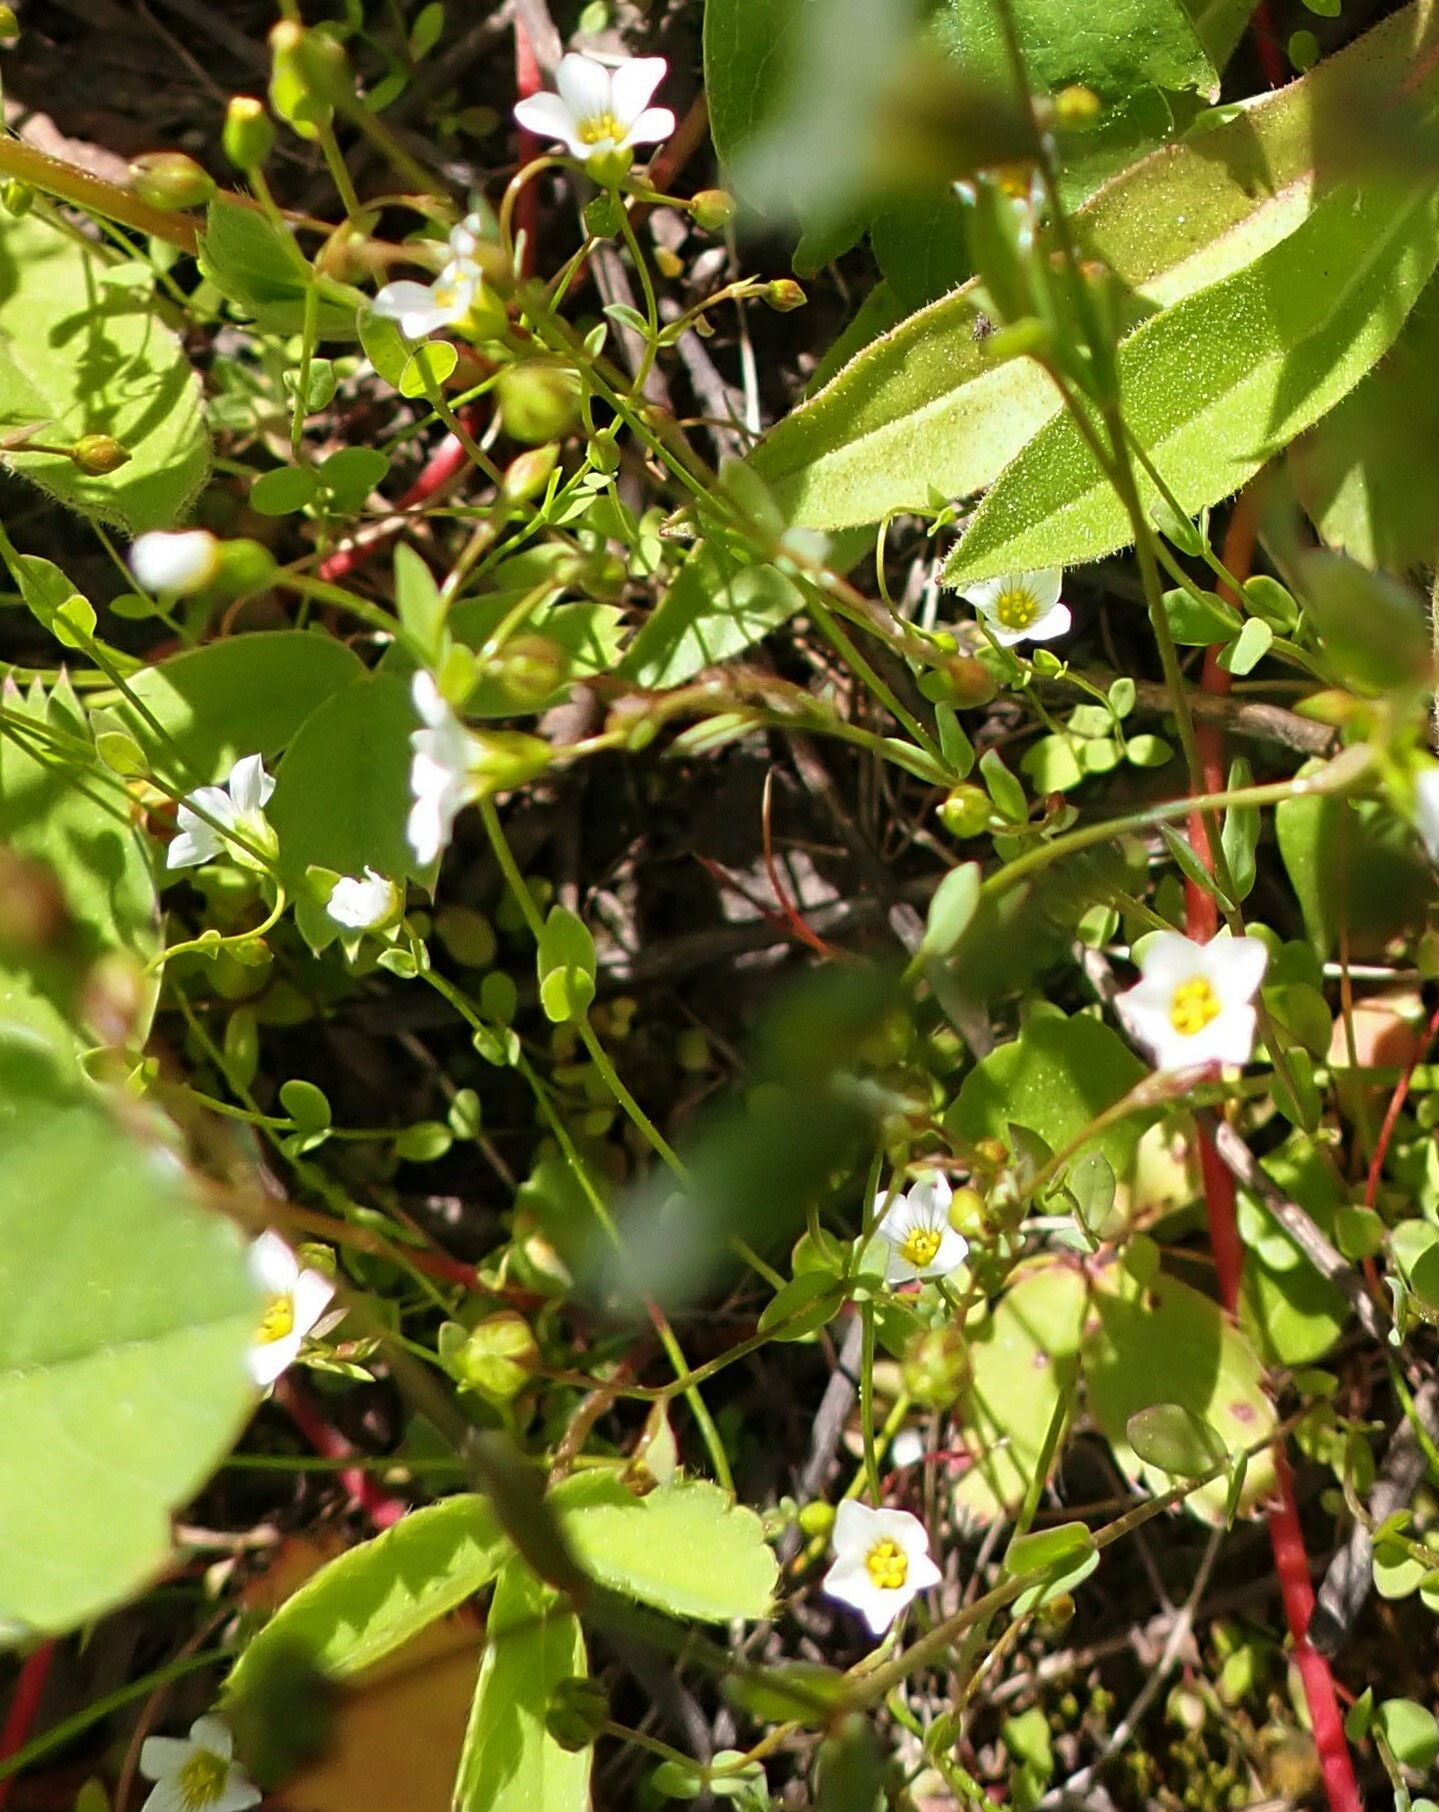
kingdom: Plantae
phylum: Tracheophyta
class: Magnoliopsida
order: Malpighiales
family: Linaceae
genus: Linum
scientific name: Linum catharticum
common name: Fairy flax
